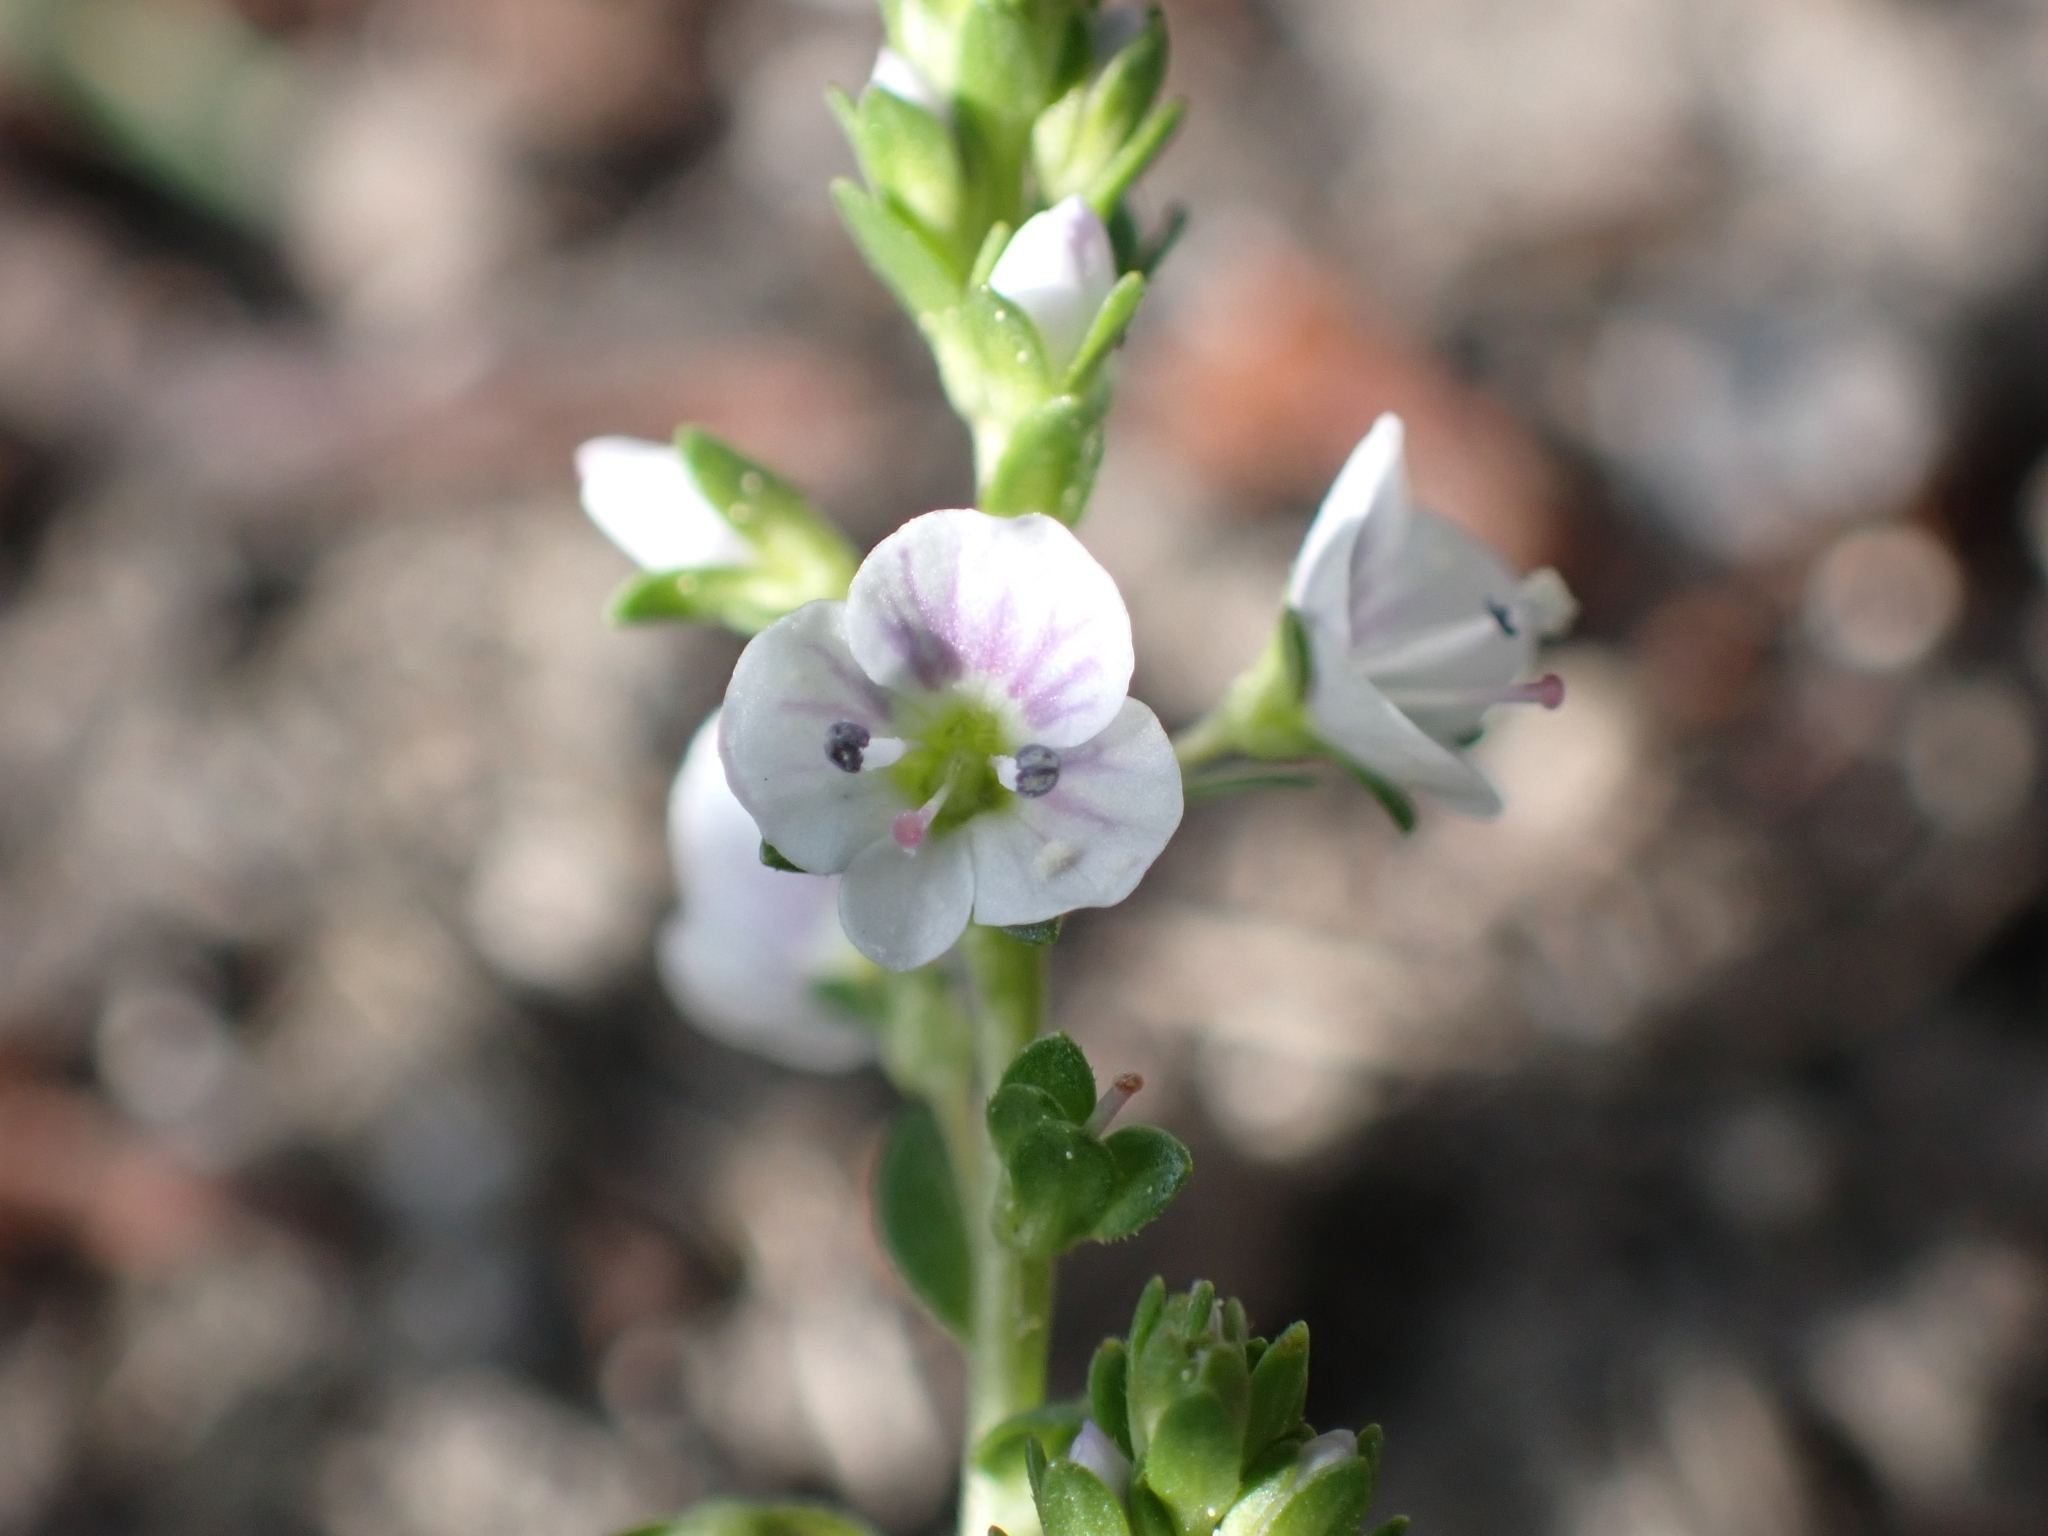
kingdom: Plantae
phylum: Tracheophyta
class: Magnoliopsida
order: Lamiales
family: Plantaginaceae
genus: Veronica
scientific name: Veronica serpyllifolia
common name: Thyme-leaved speedwell
